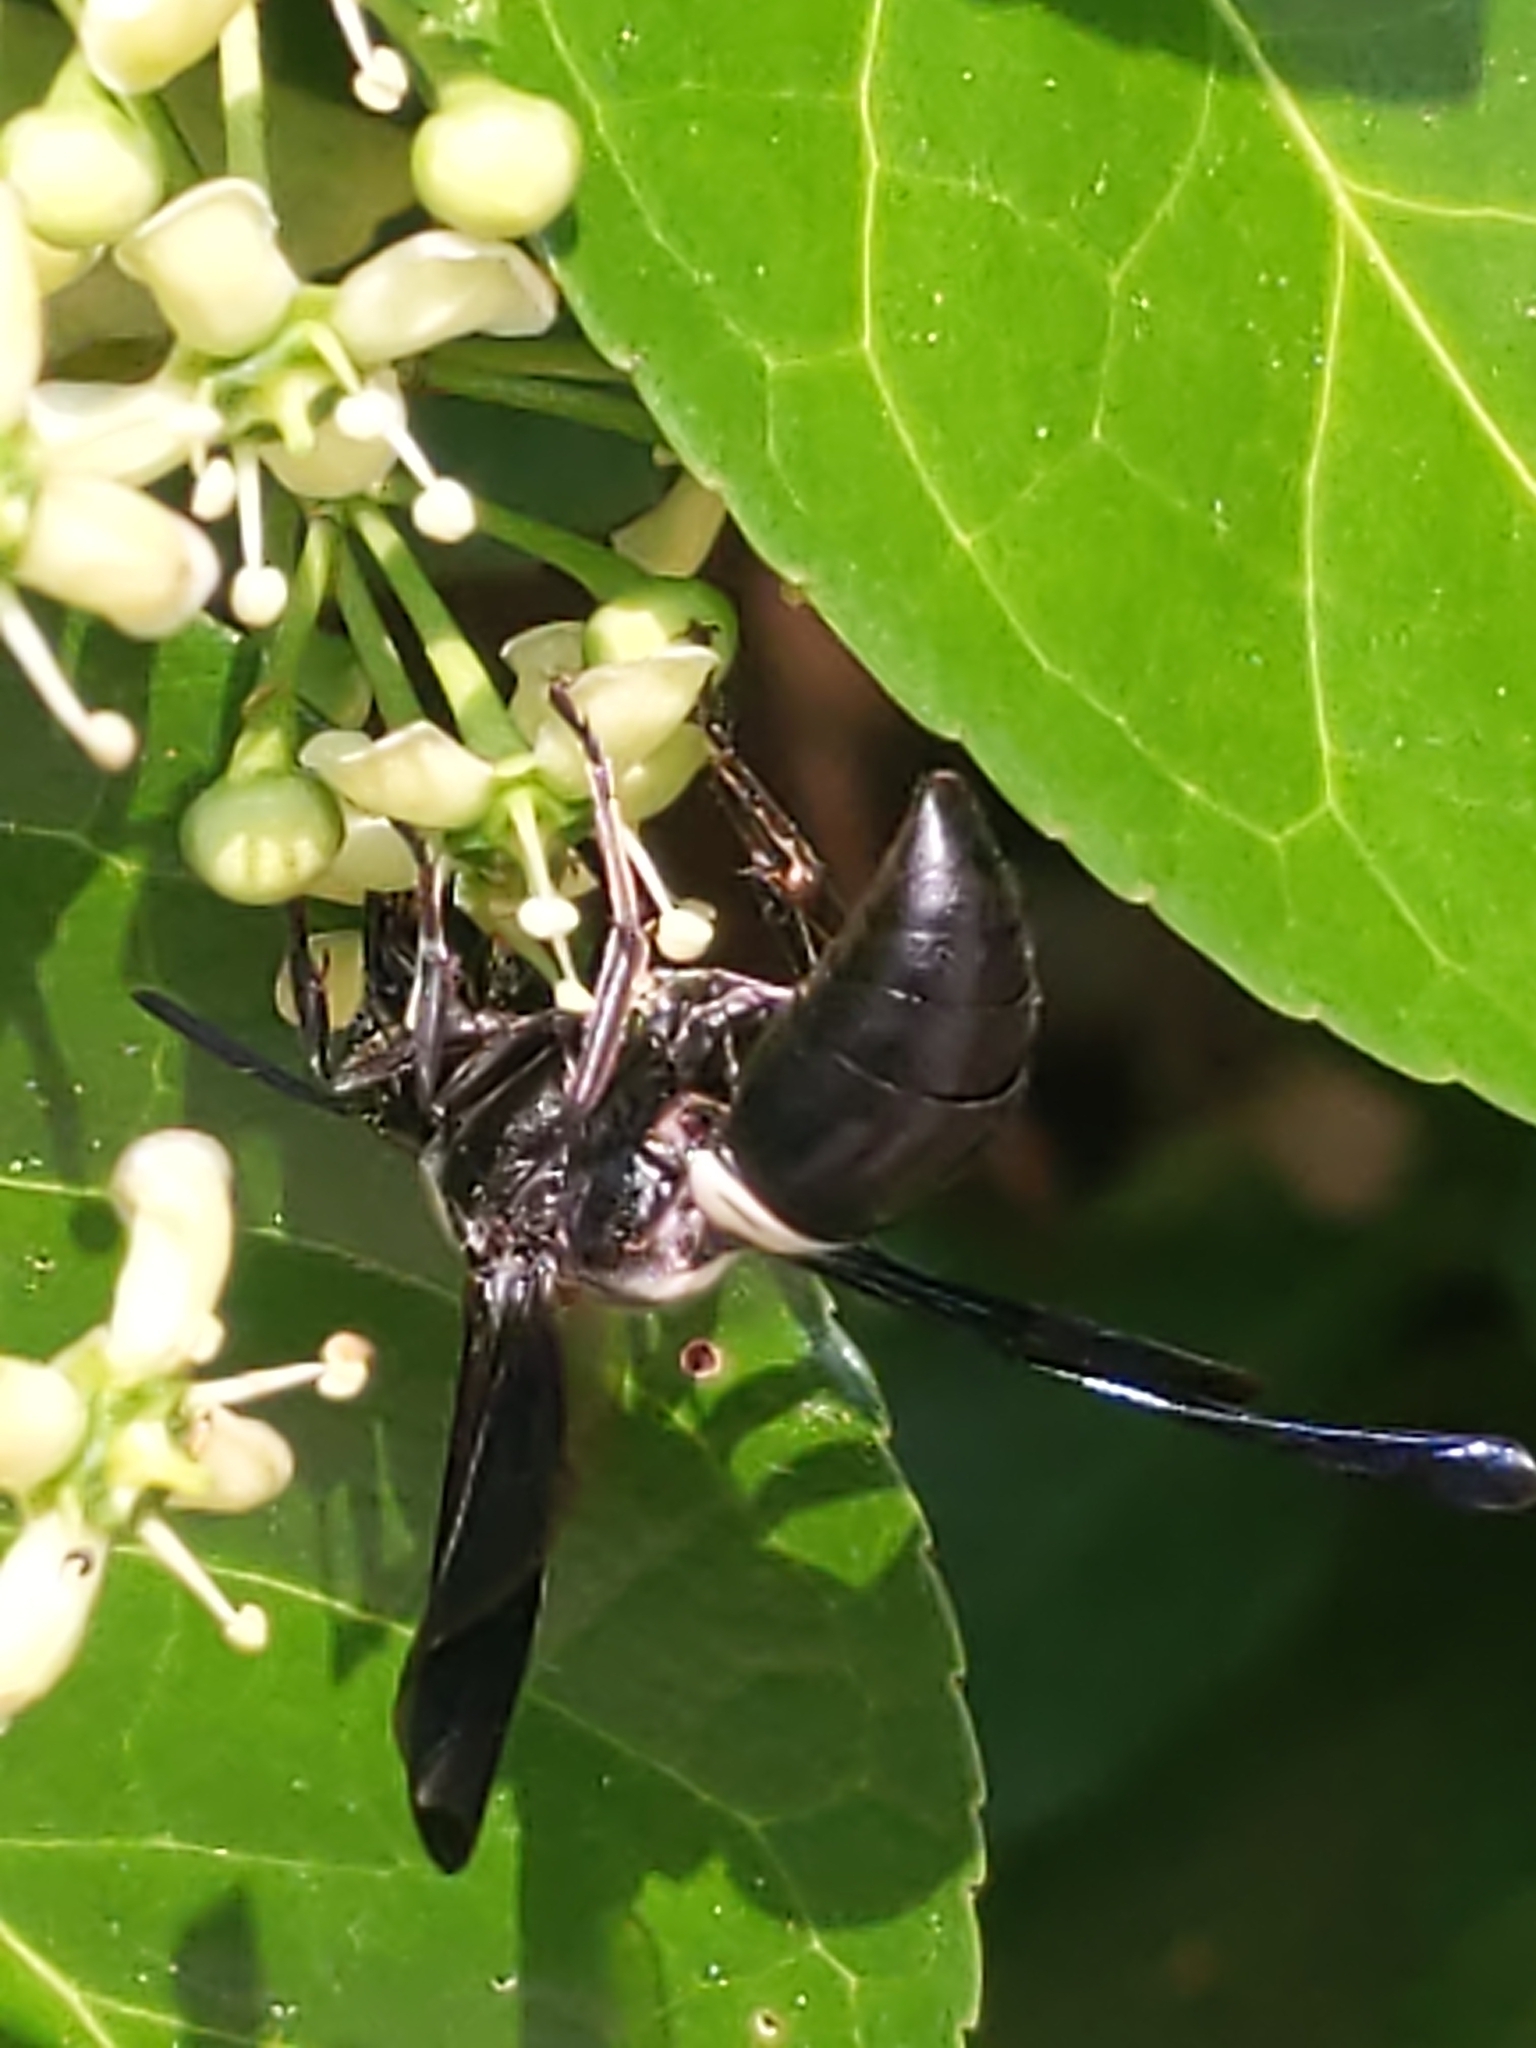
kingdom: Animalia
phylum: Arthropoda
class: Insecta
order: Hymenoptera
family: Eumenidae
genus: Monobia
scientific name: Monobia quadridens
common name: Four-toothed mason wasp
